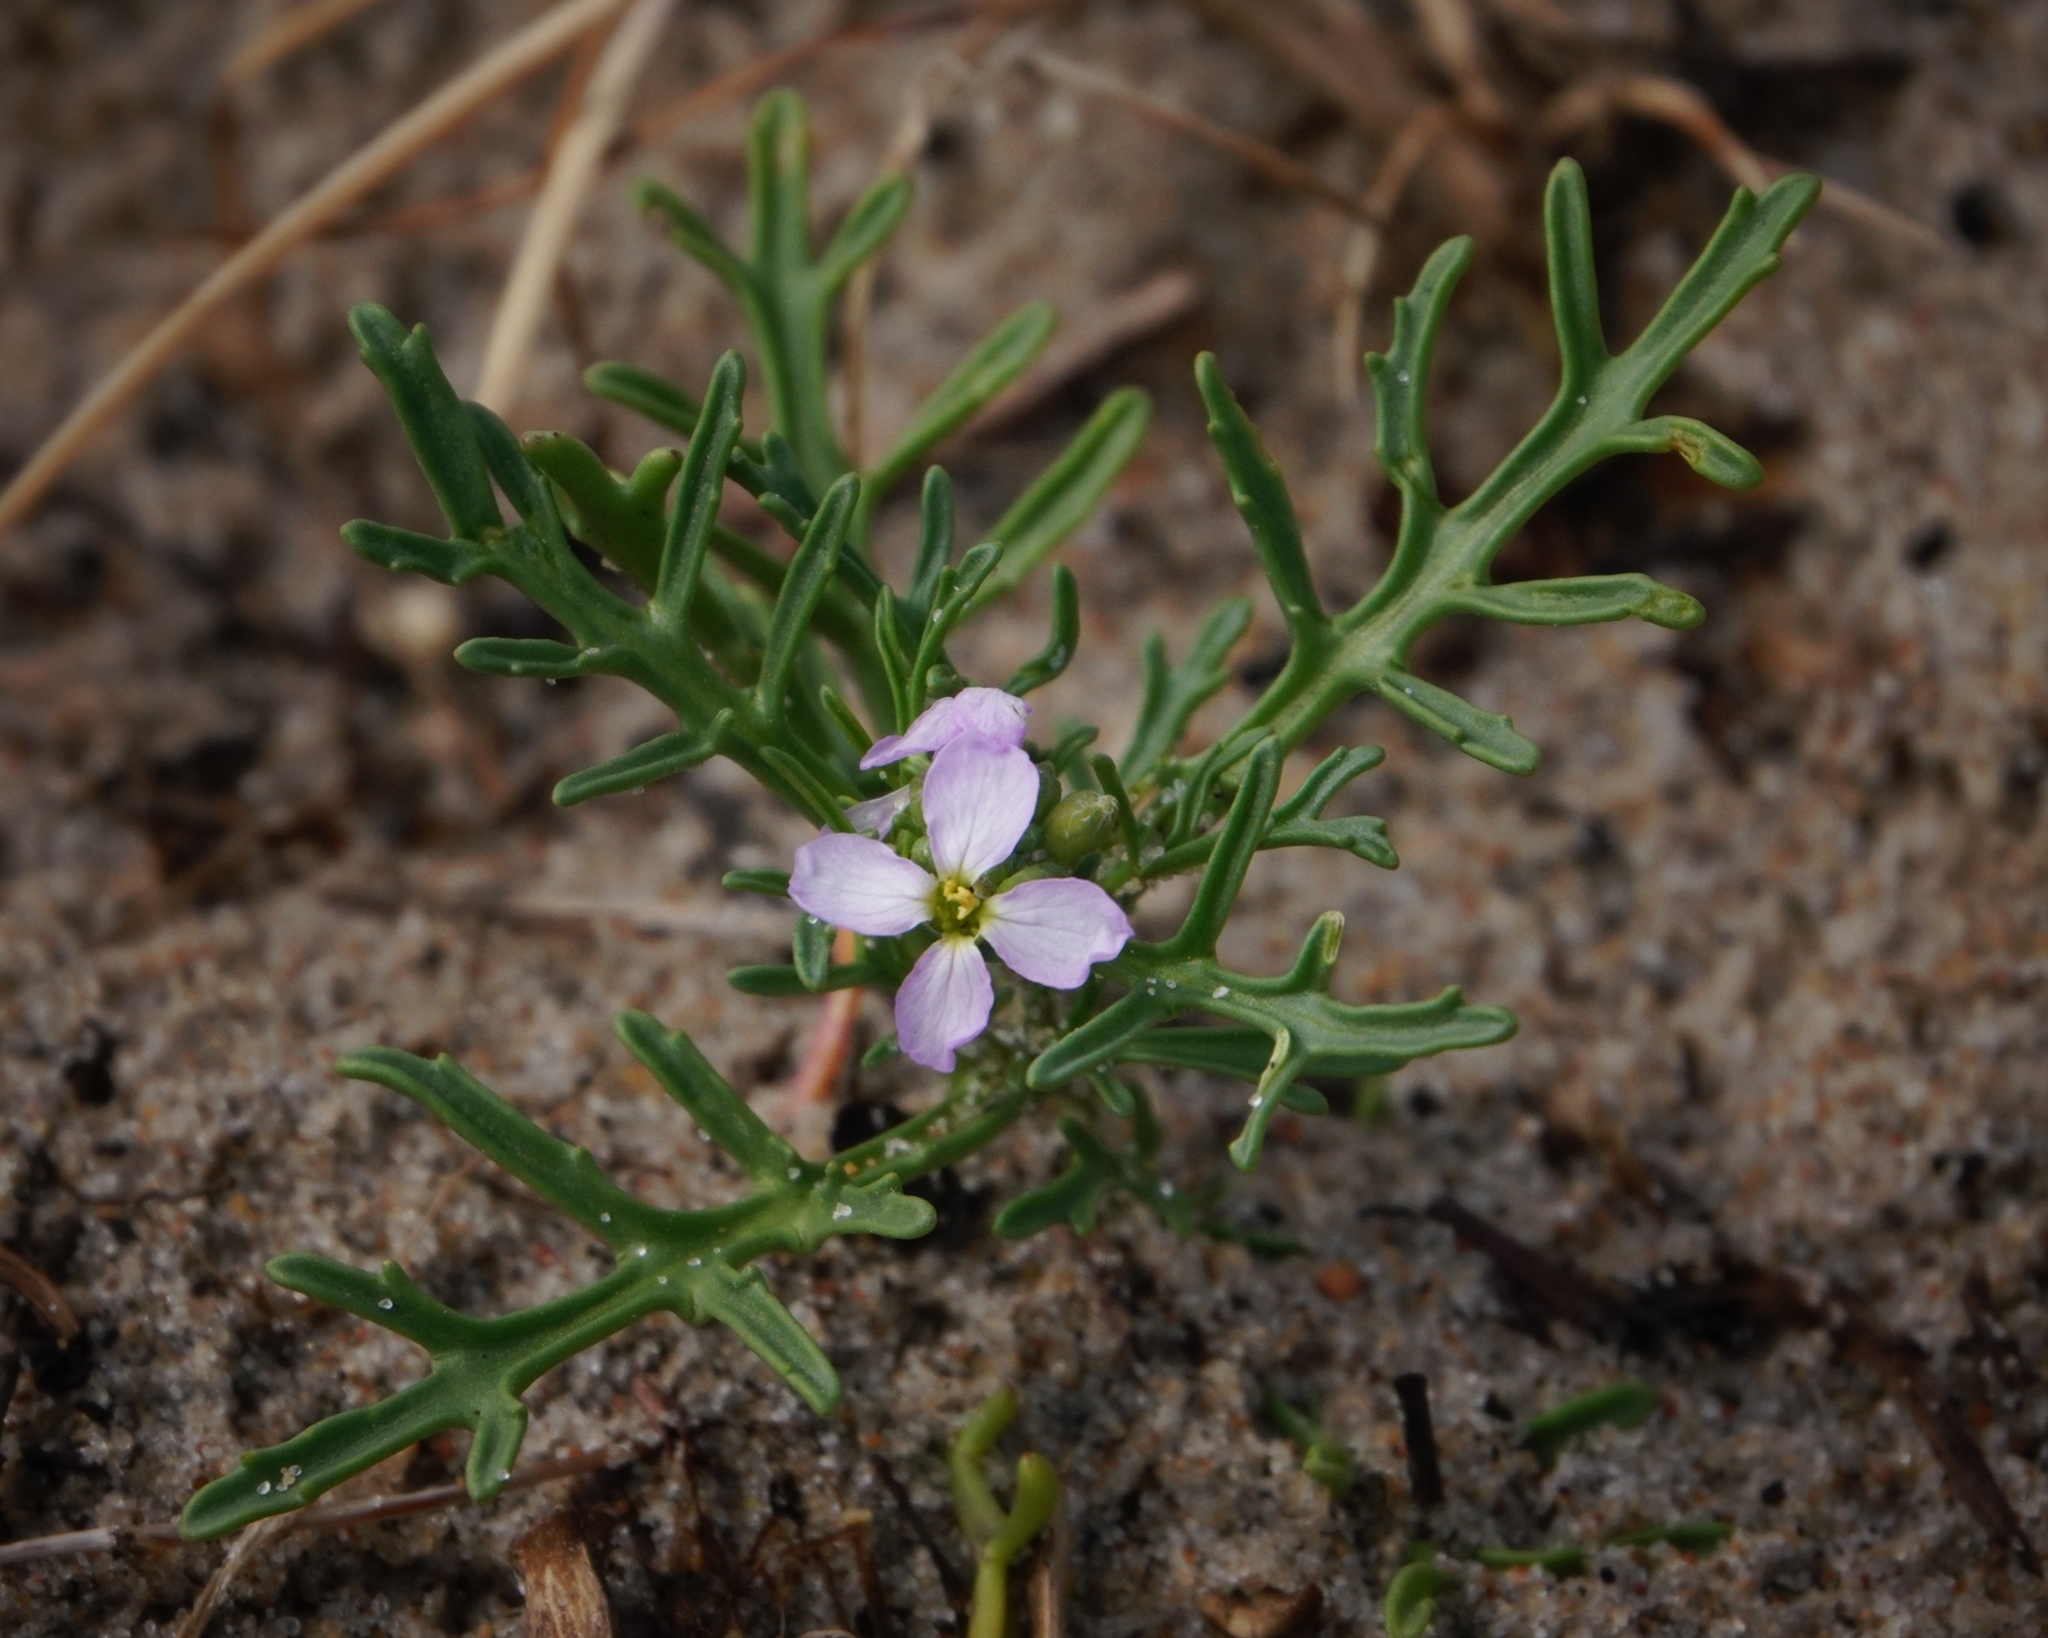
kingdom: Plantae
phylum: Tracheophyta
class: Magnoliopsida
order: Brassicales
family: Brassicaceae
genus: Cakile
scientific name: Cakile maritima
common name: Sea rocket
